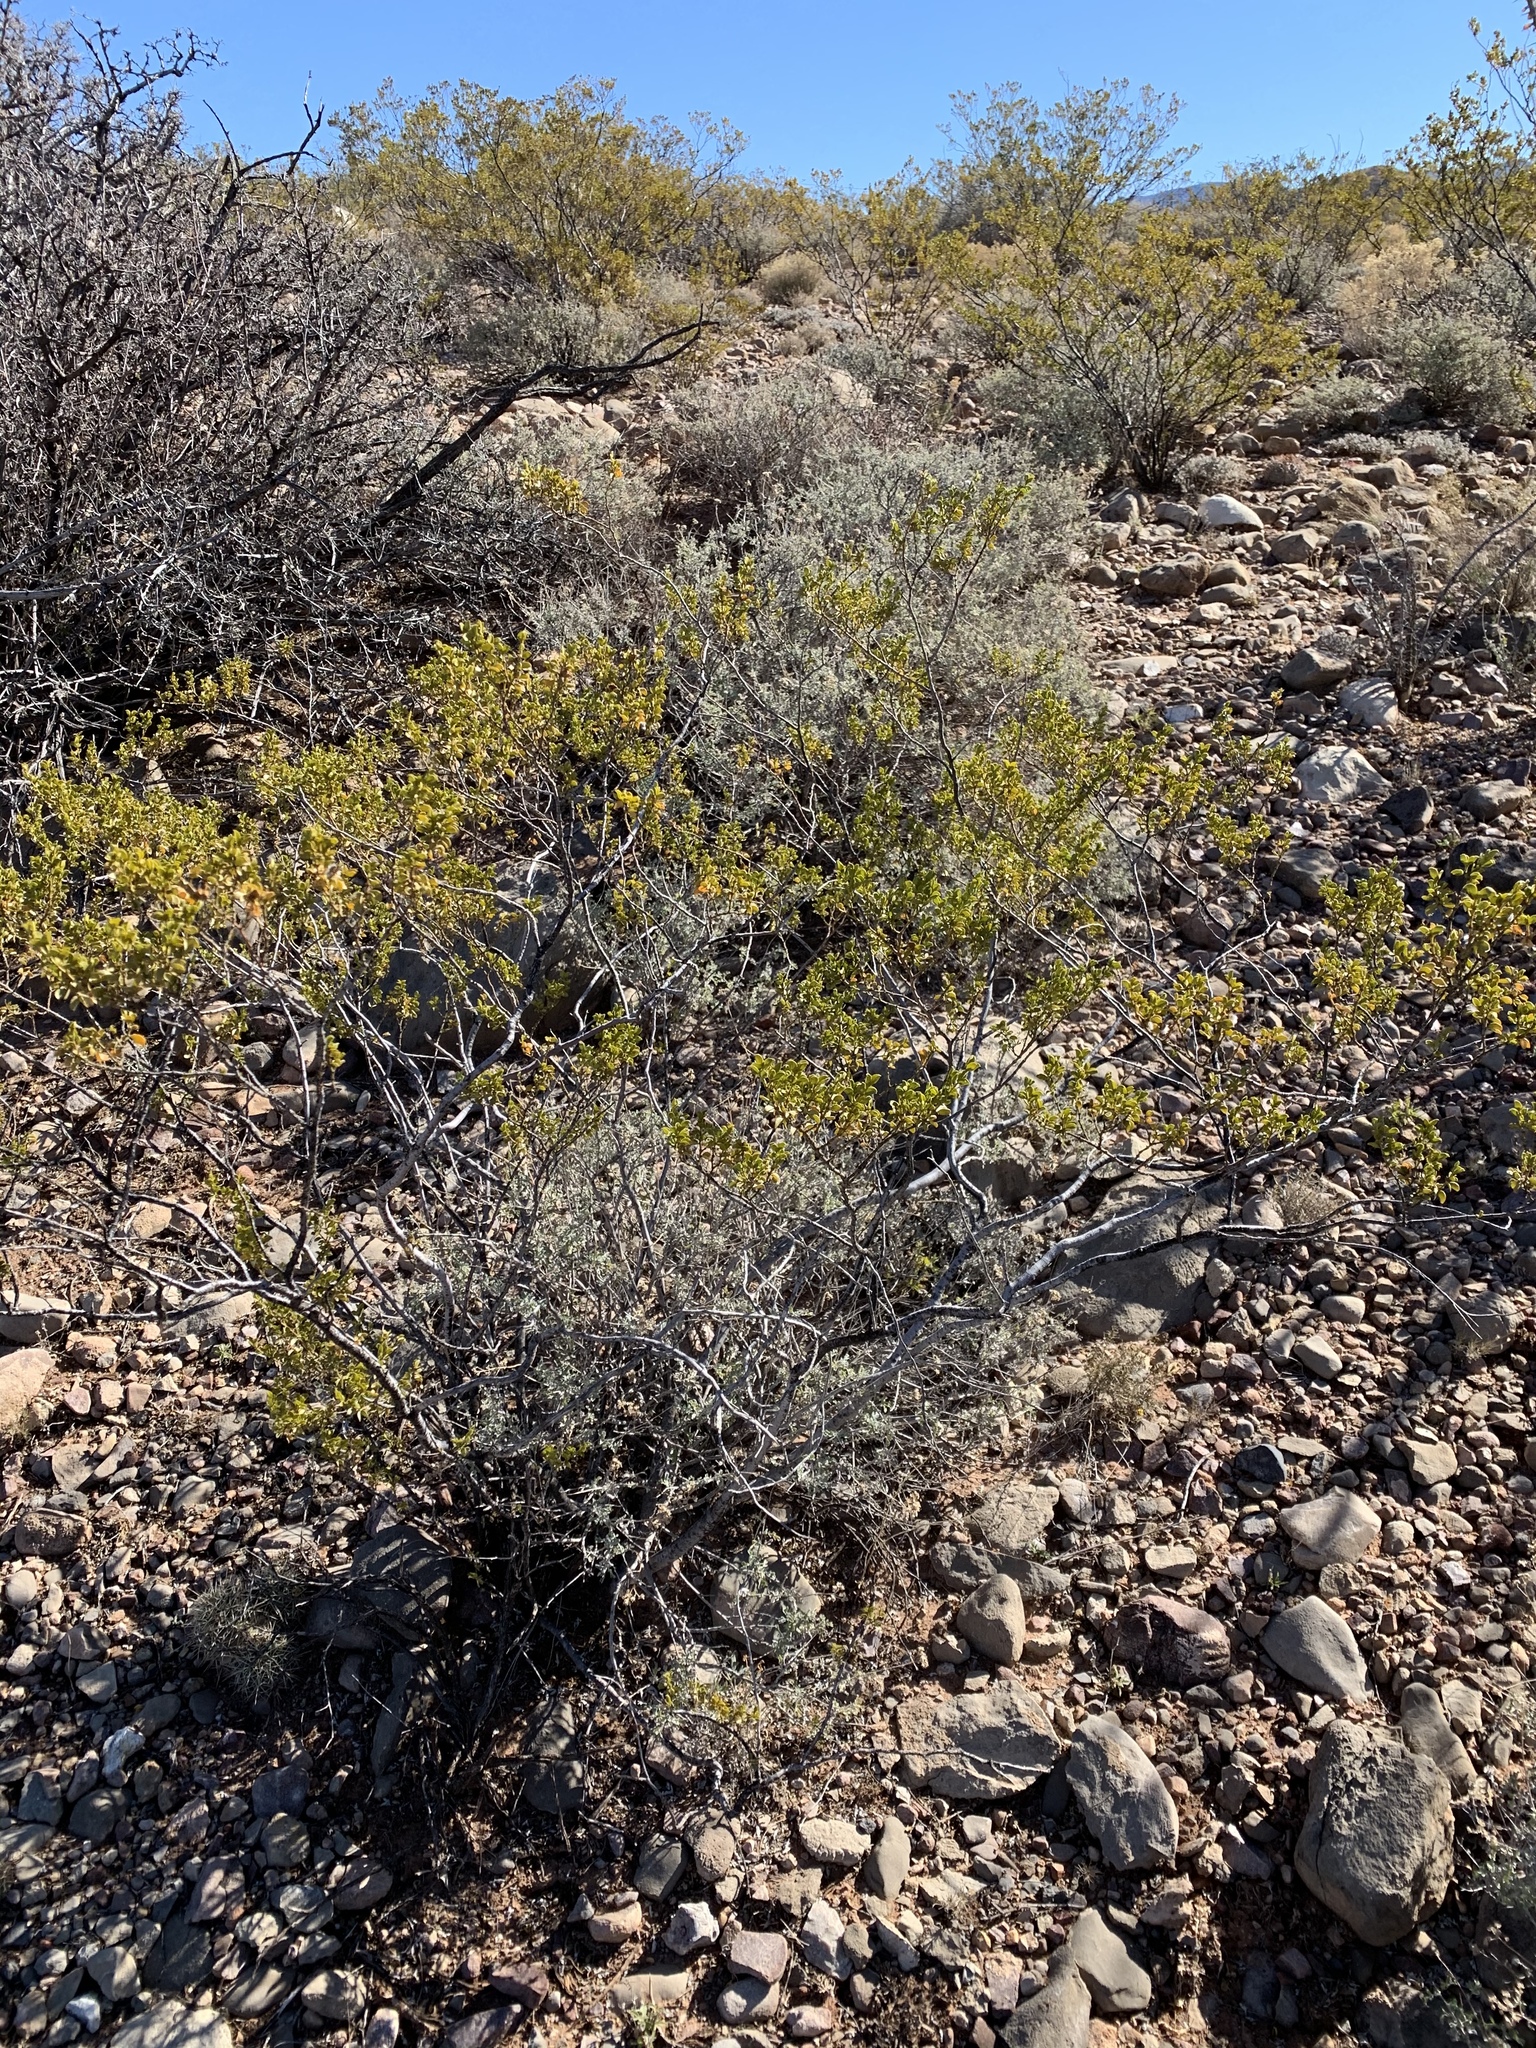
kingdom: Plantae
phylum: Tracheophyta
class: Magnoliopsida
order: Zygophyllales
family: Zygophyllaceae
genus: Larrea
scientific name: Larrea tridentata
